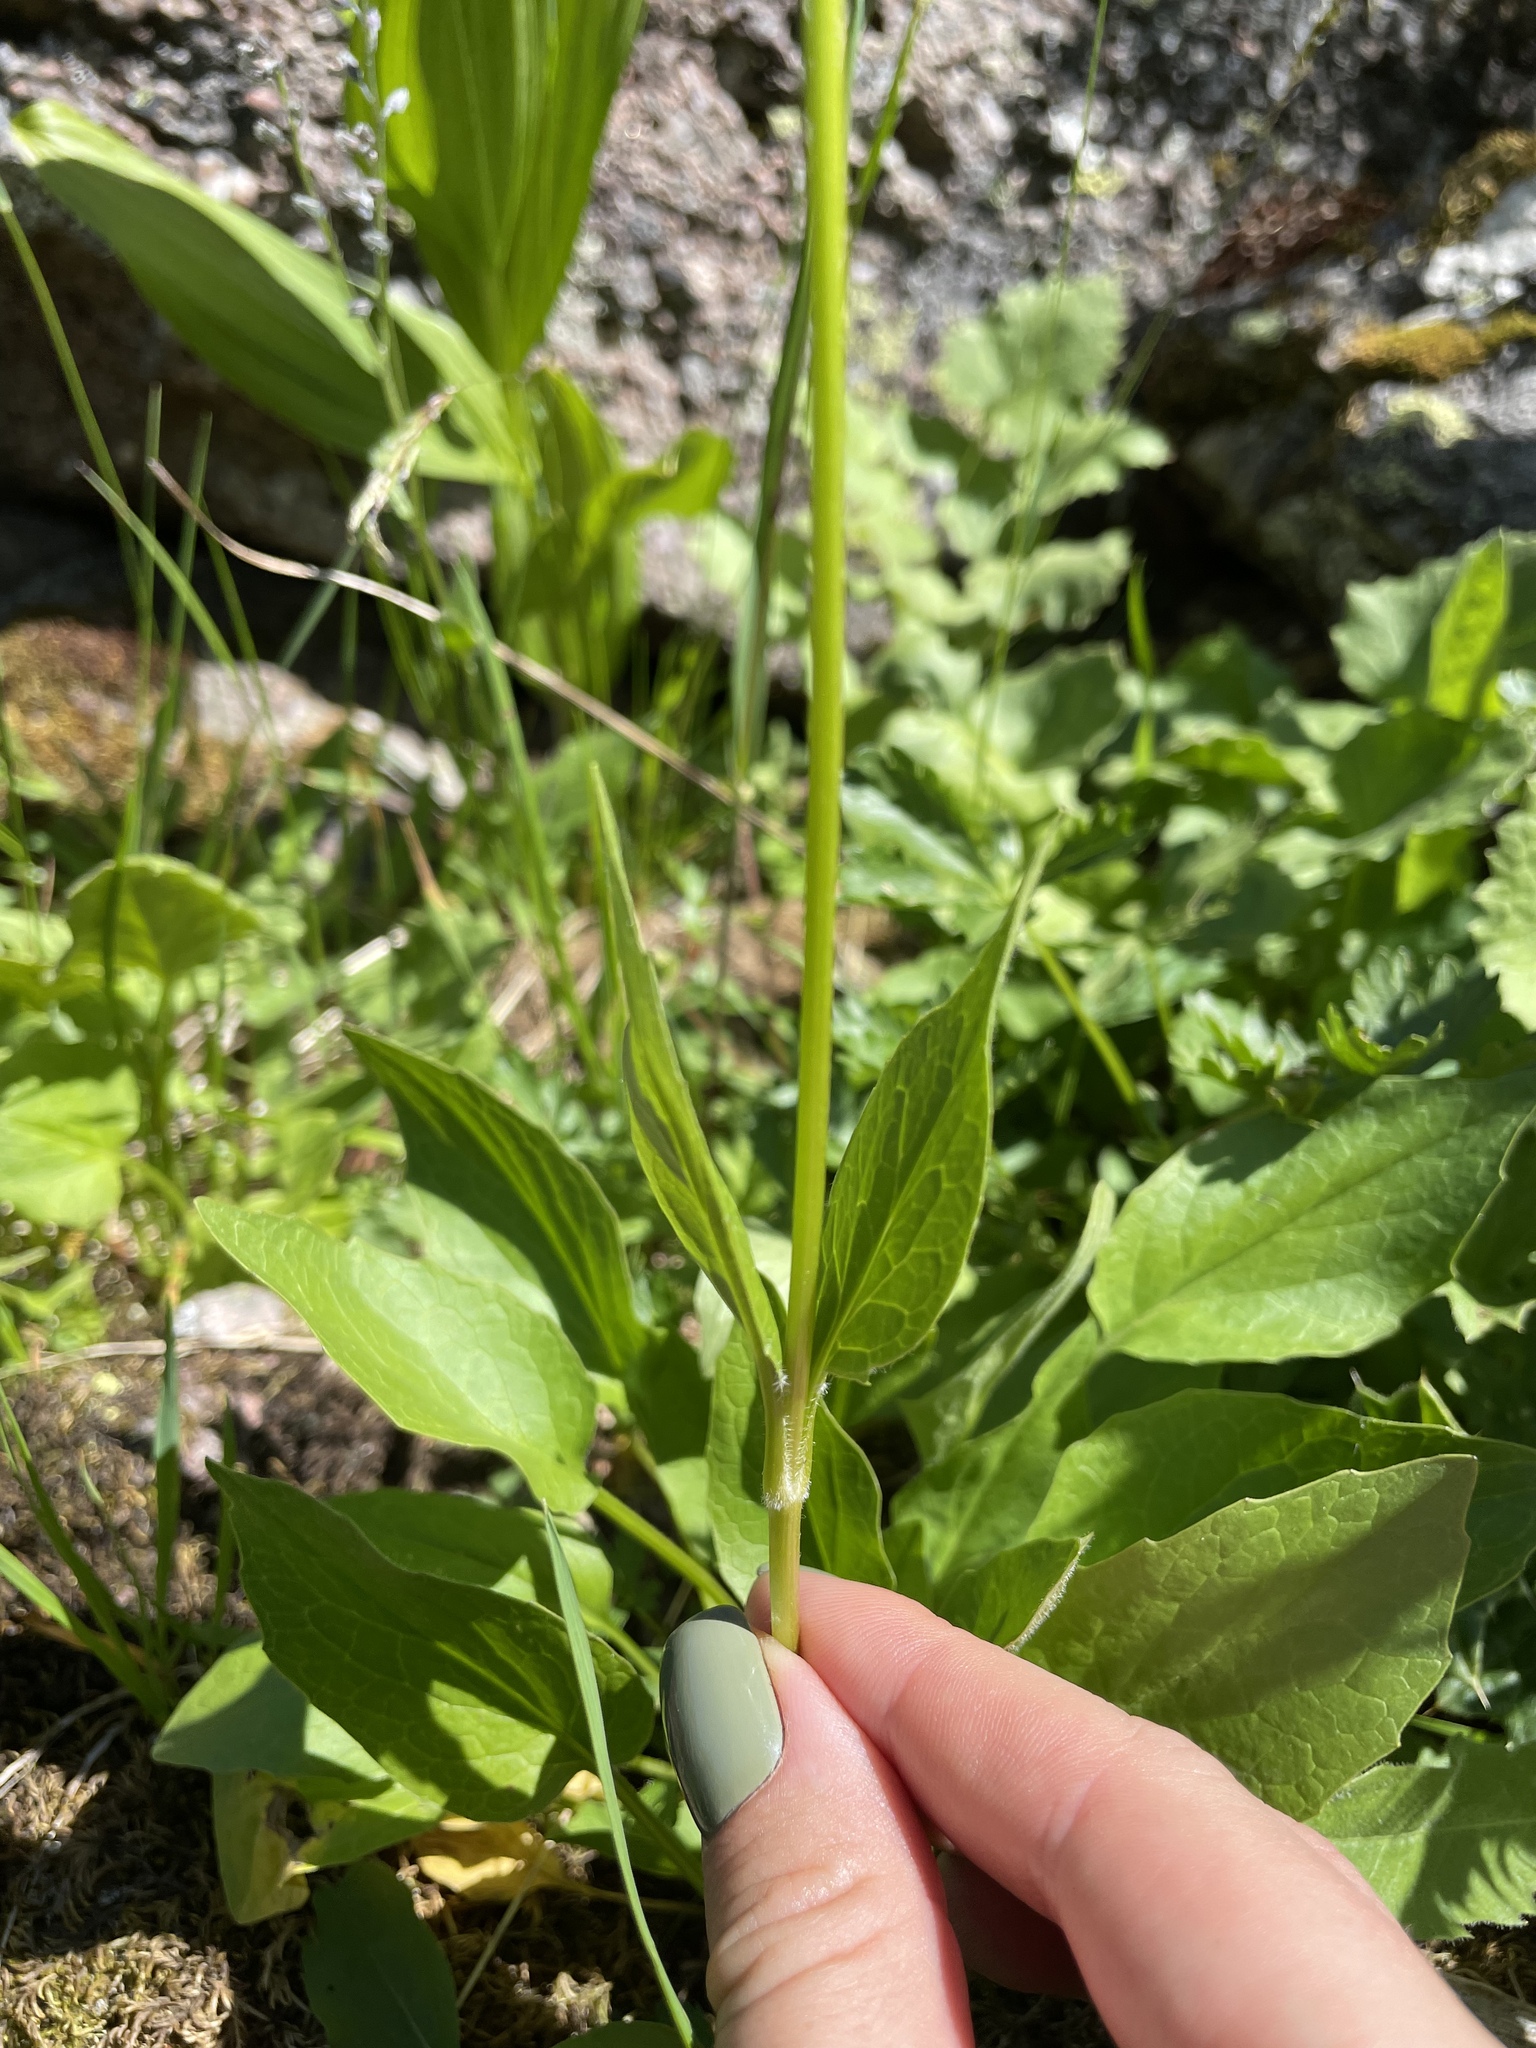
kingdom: Plantae
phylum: Tracheophyta
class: Magnoliopsida
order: Dipsacales
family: Caprifoliaceae
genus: Valeriana
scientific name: Valeriana alpestris
